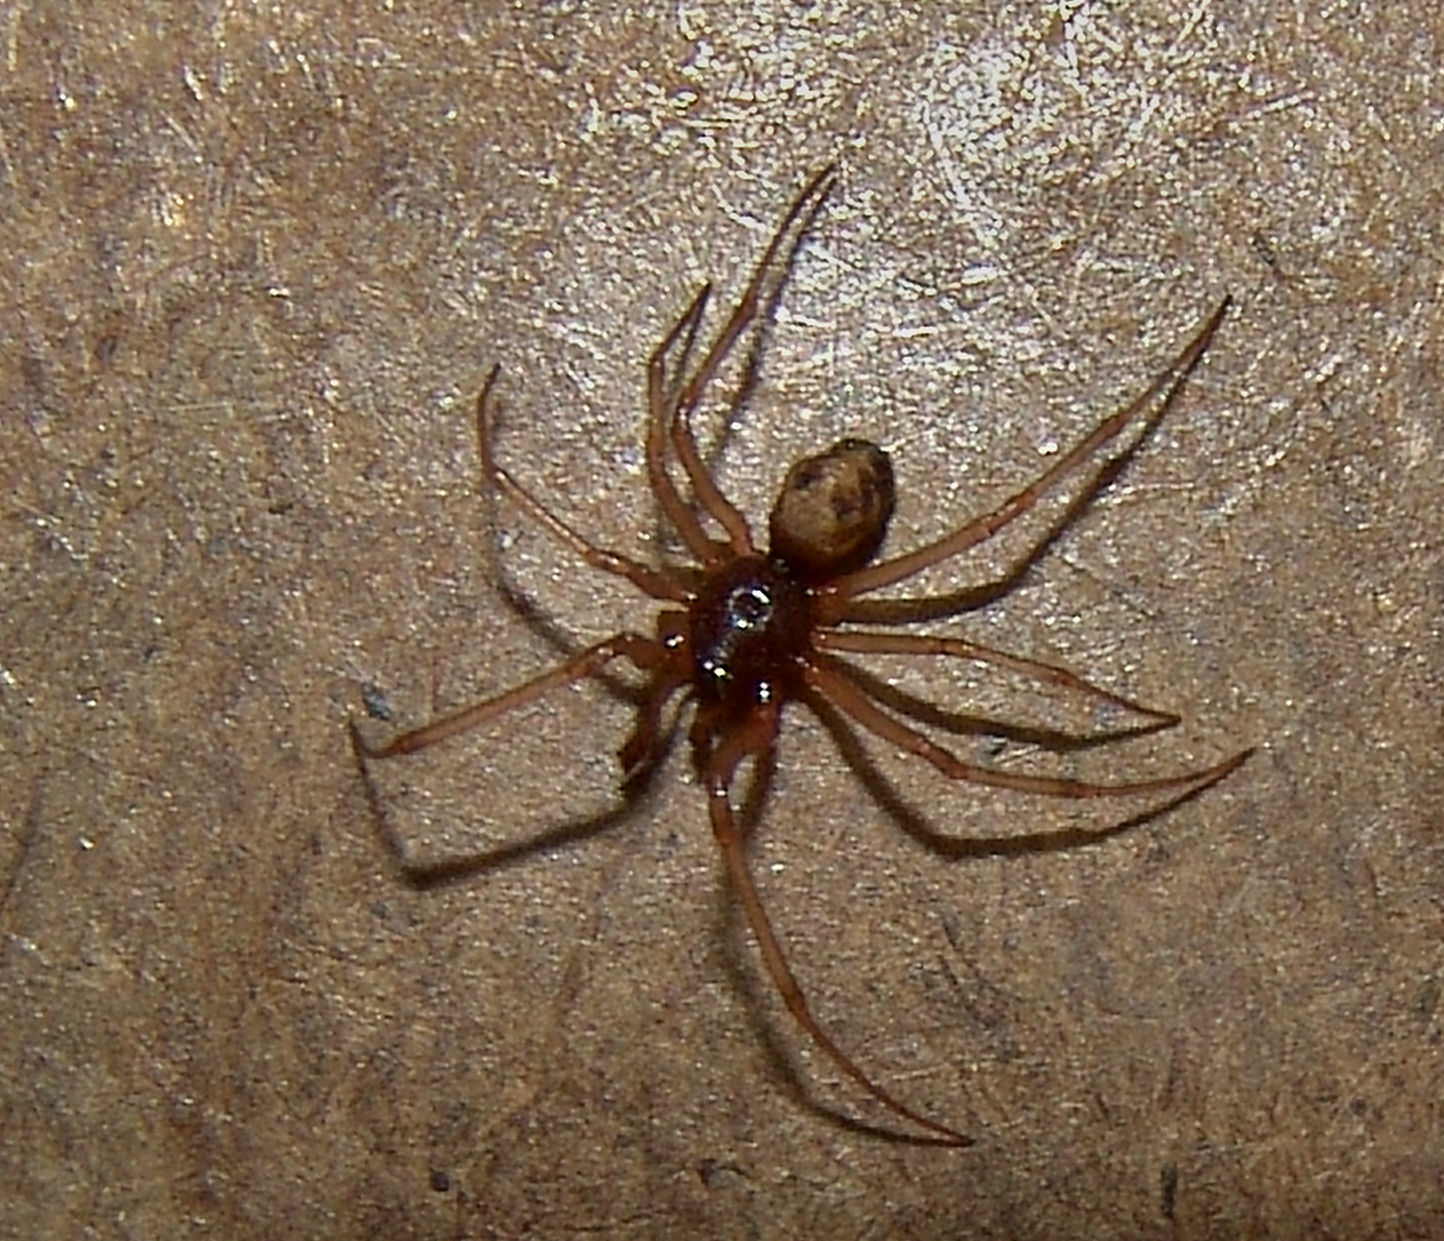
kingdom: Animalia
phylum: Arthropoda
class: Arachnida
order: Araneae
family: Theridiidae
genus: Steatoda
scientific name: Steatoda triangulosa
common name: Triangulate bud spider
